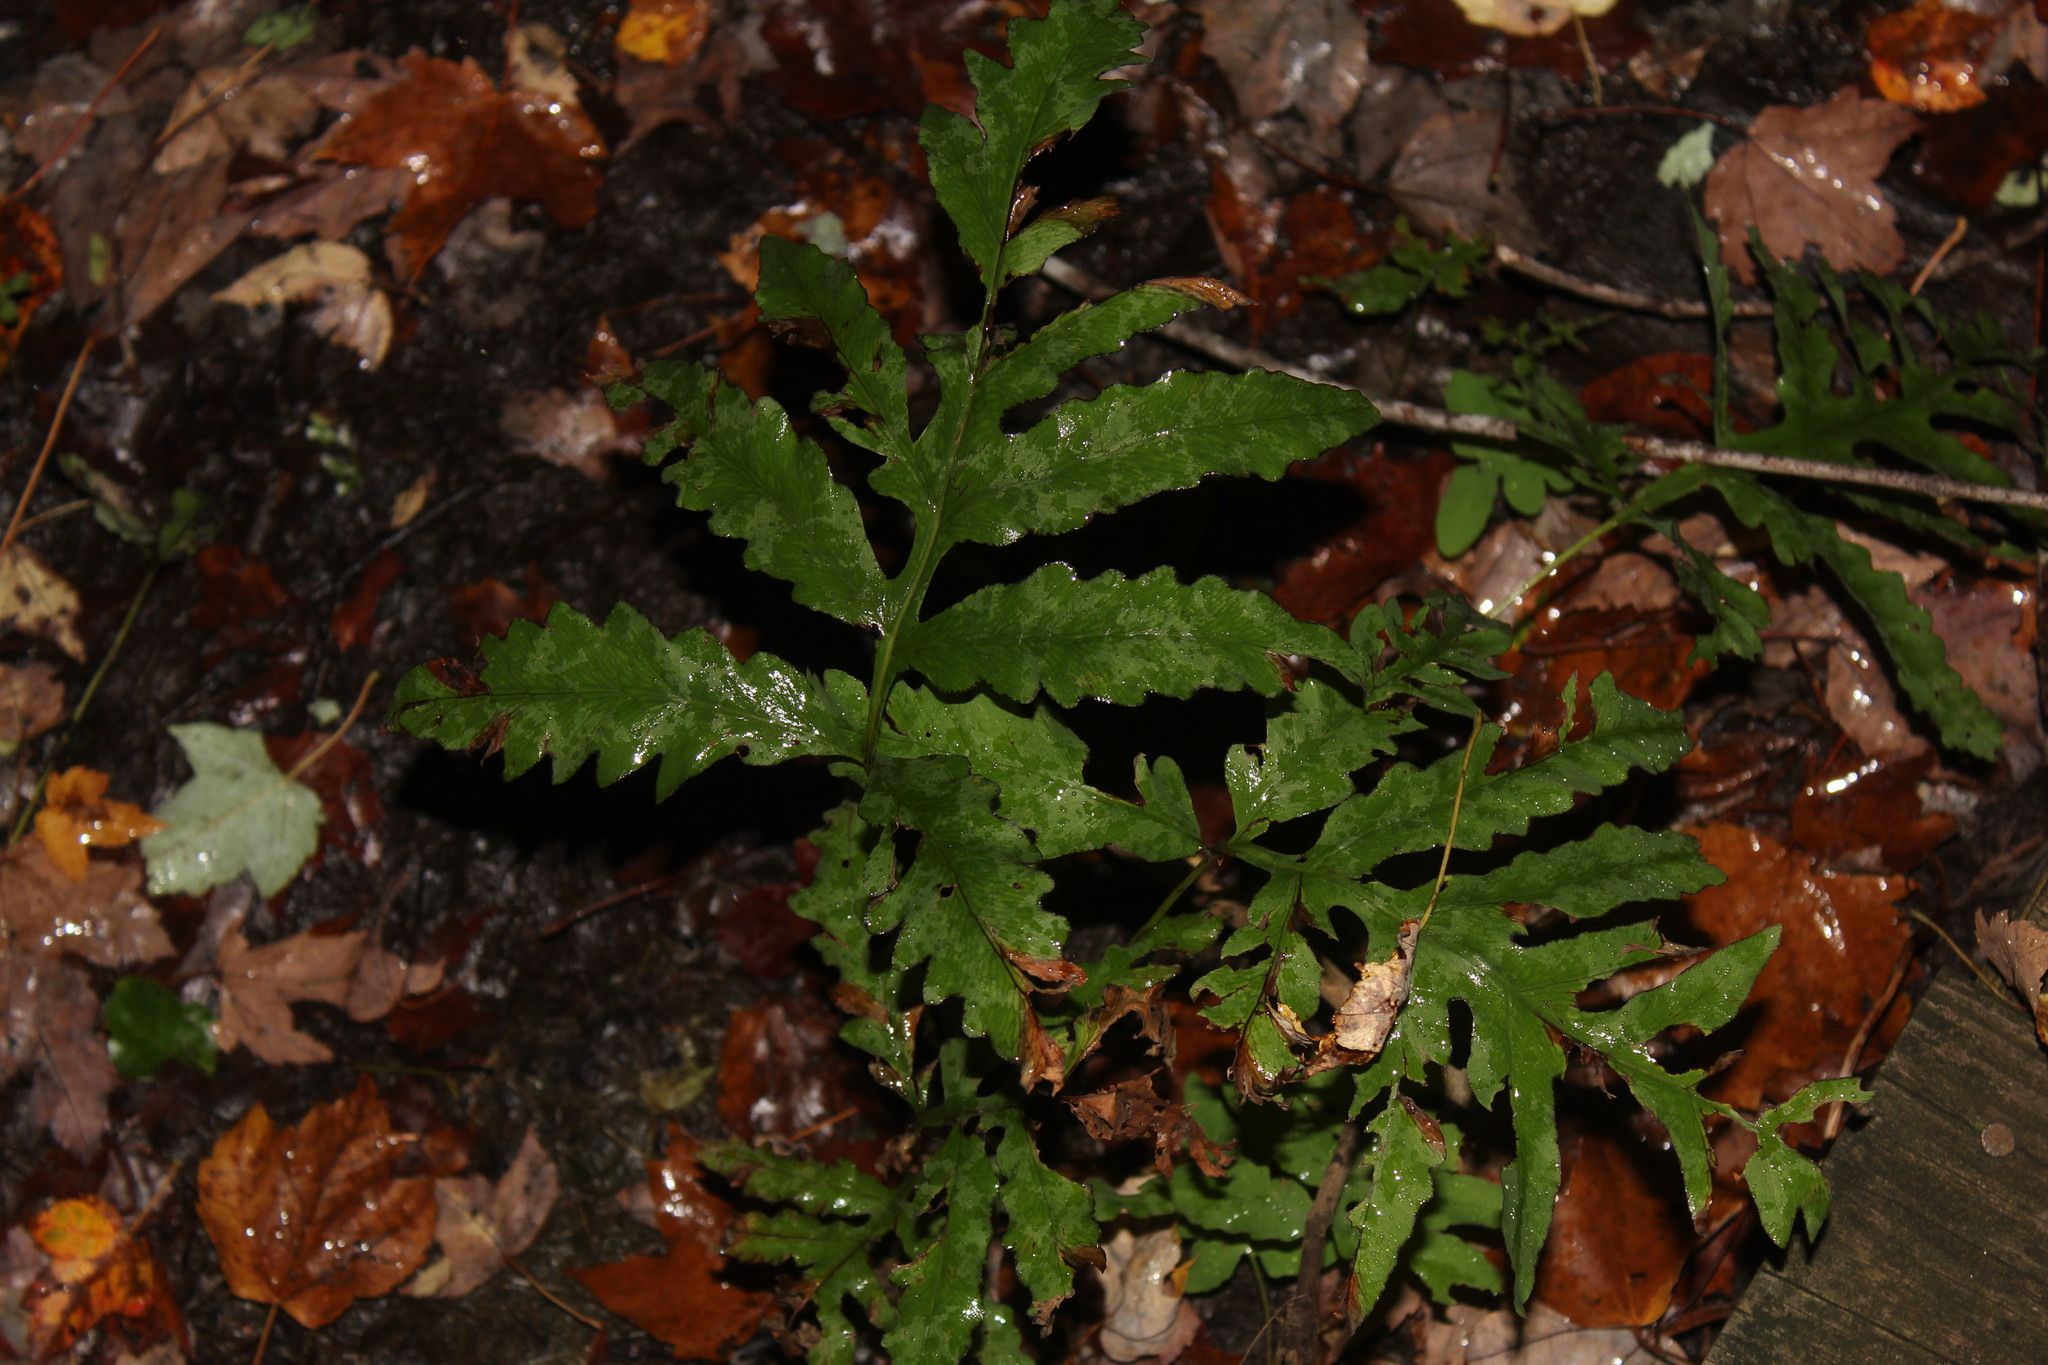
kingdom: Plantae
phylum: Tracheophyta
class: Polypodiopsida
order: Polypodiales
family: Onocleaceae
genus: Onoclea
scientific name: Onoclea sensibilis
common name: Sensitive fern
